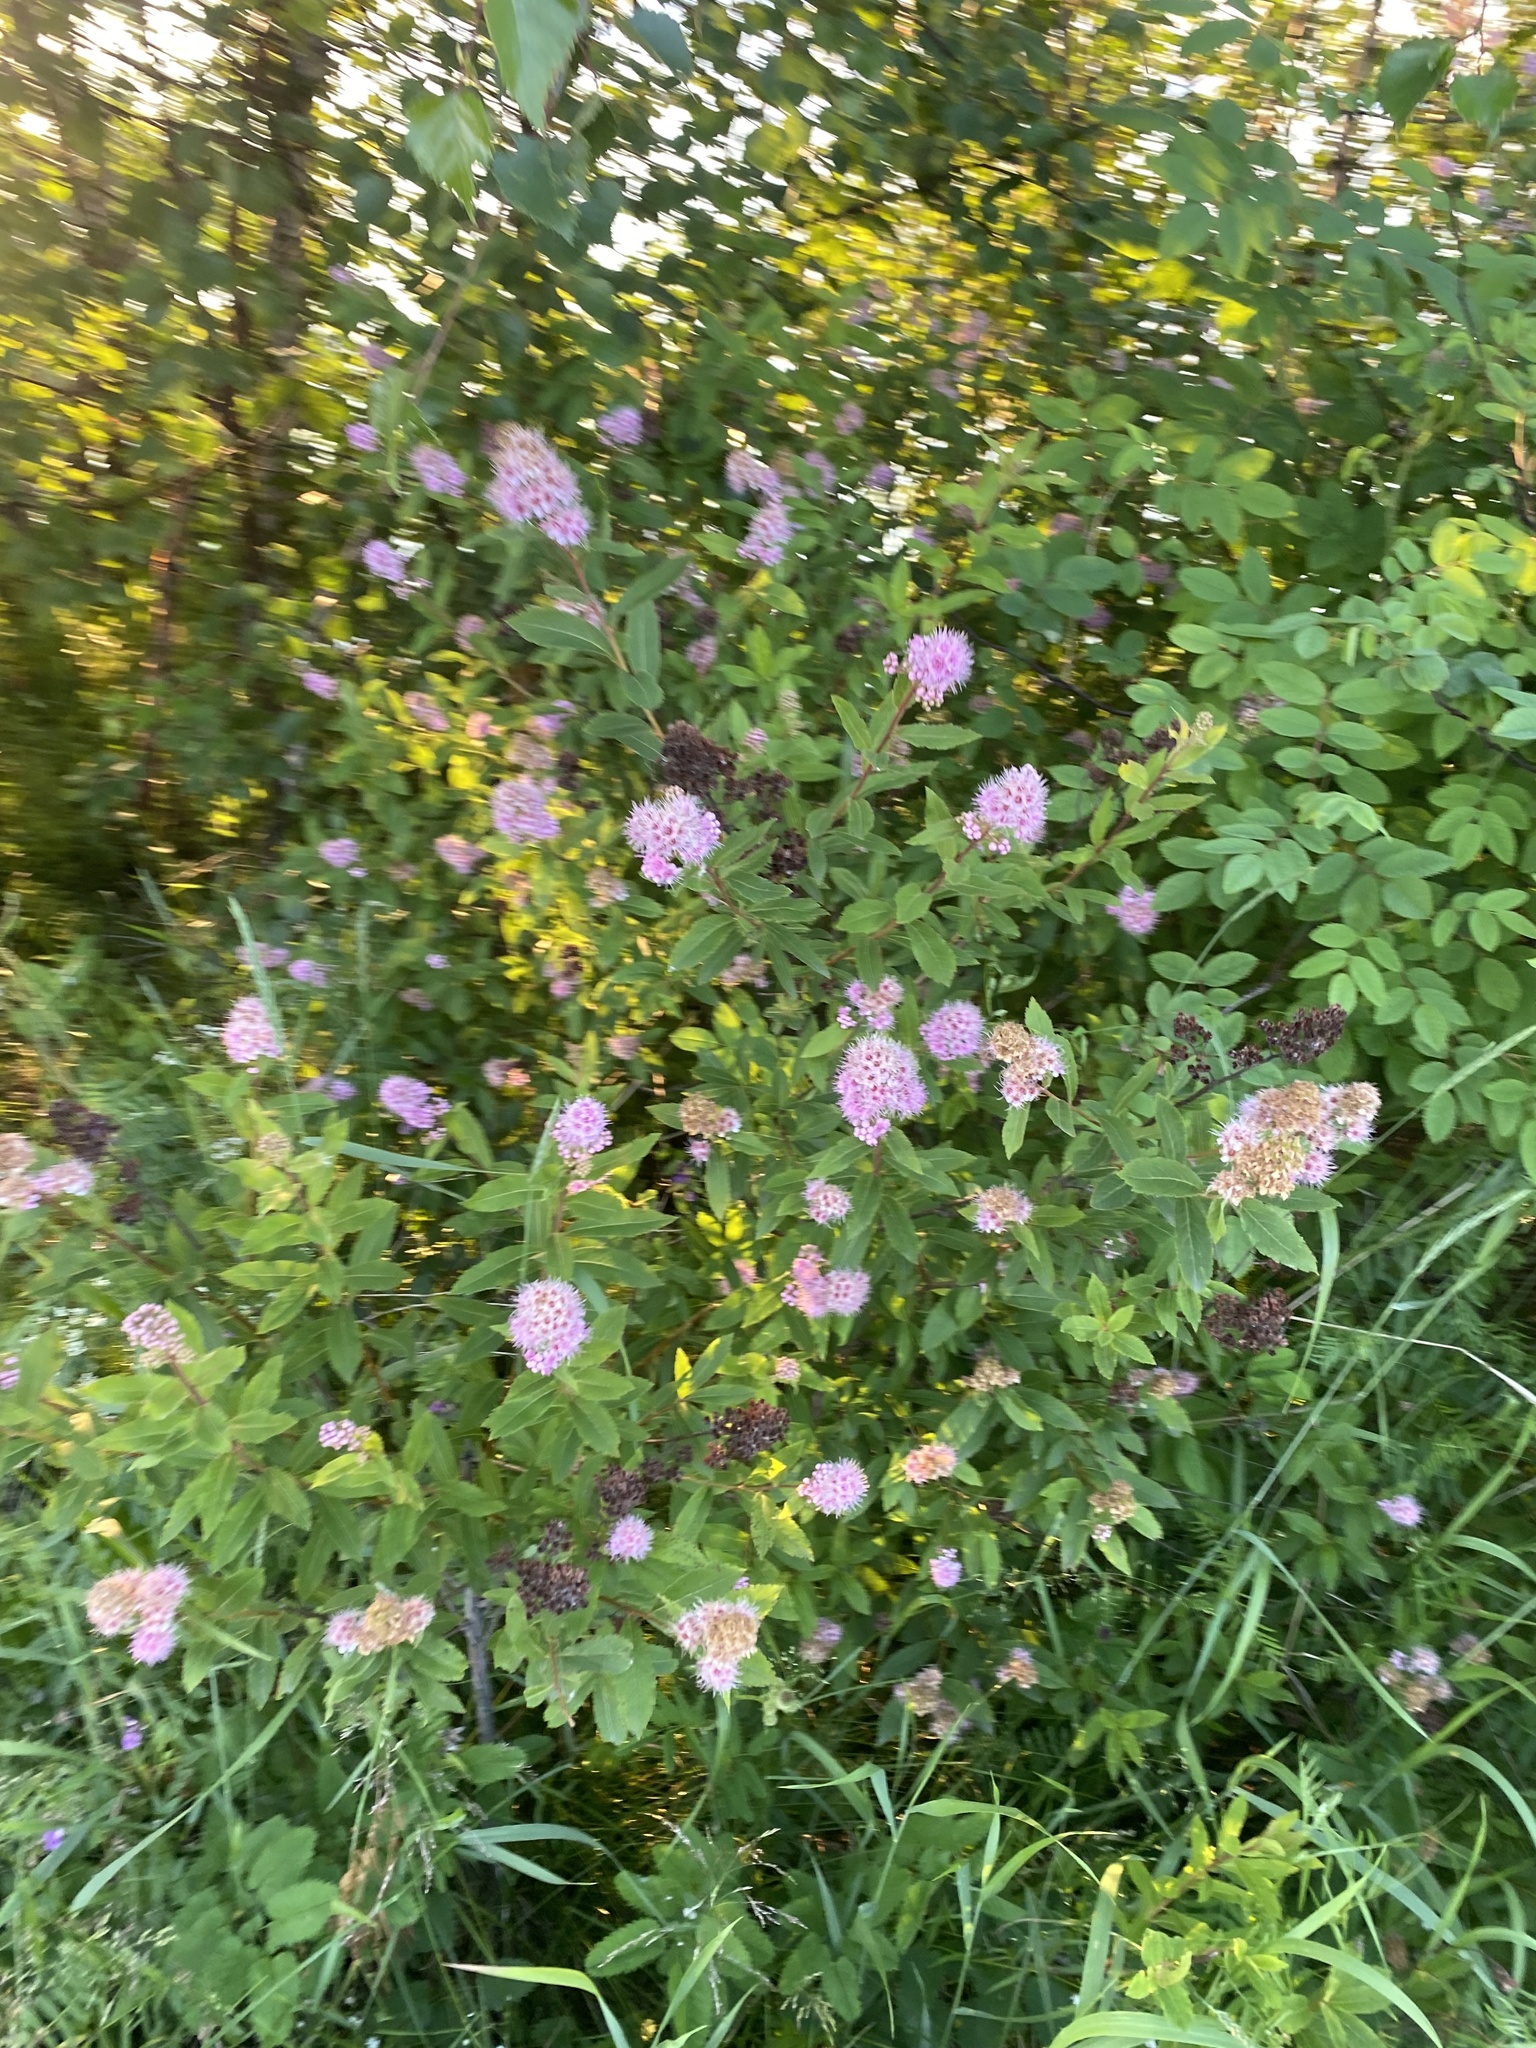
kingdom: Plantae
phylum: Tracheophyta
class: Magnoliopsida
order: Rosales
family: Rosaceae
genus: Spiraea
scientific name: Spiraea salicifolia
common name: Bridewort
